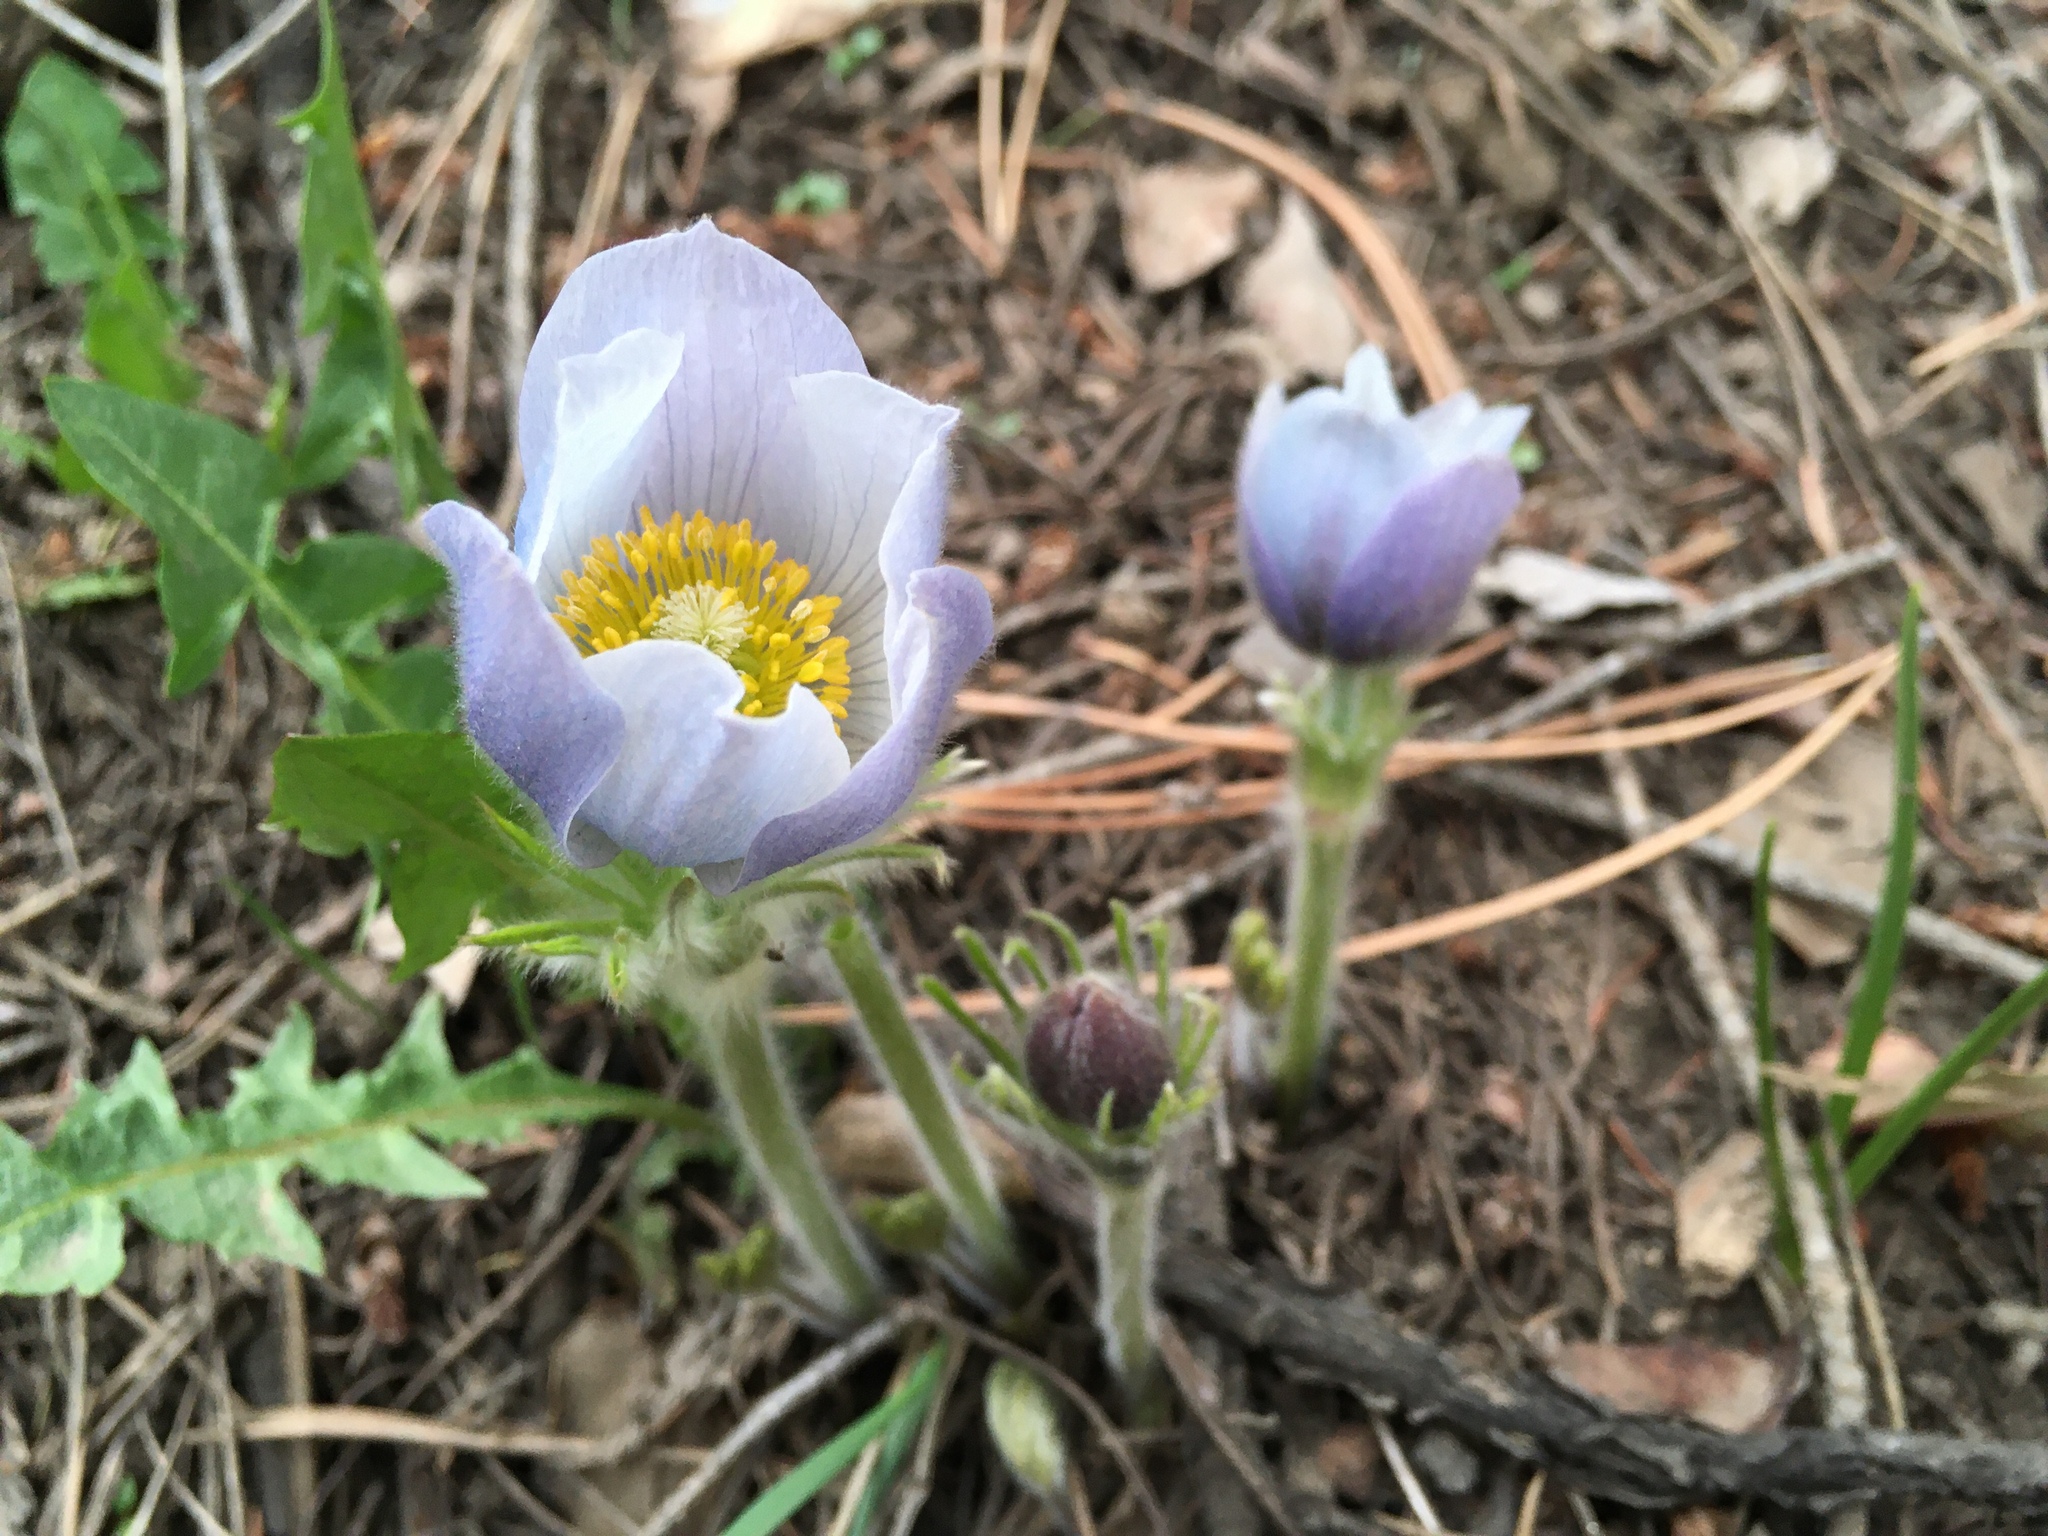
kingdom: Plantae
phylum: Tracheophyta
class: Magnoliopsida
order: Ranunculales
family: Ranunculaceae
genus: Pulsatilla
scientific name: Pulsatilla nuttalliana
